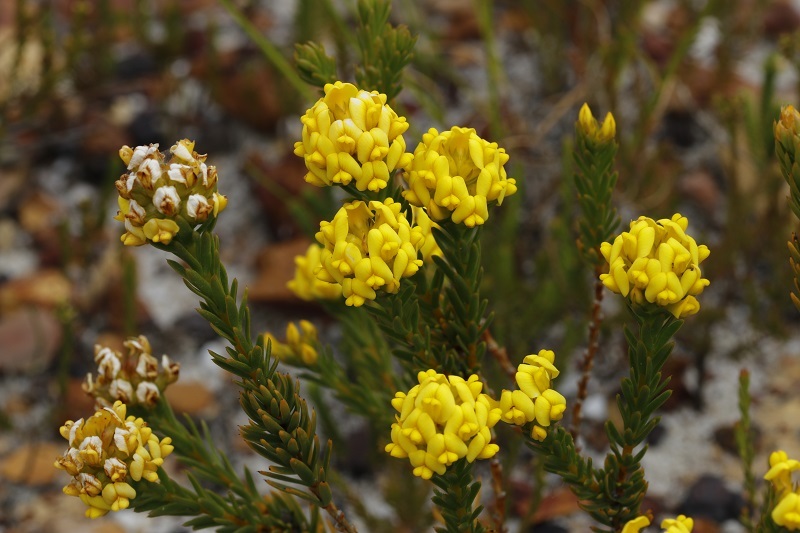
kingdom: Plantae
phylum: Tracheophyta
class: Magnoliopsida
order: Fabales
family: Fabaceae
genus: Aspalathus
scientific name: Aspalathus callosa
